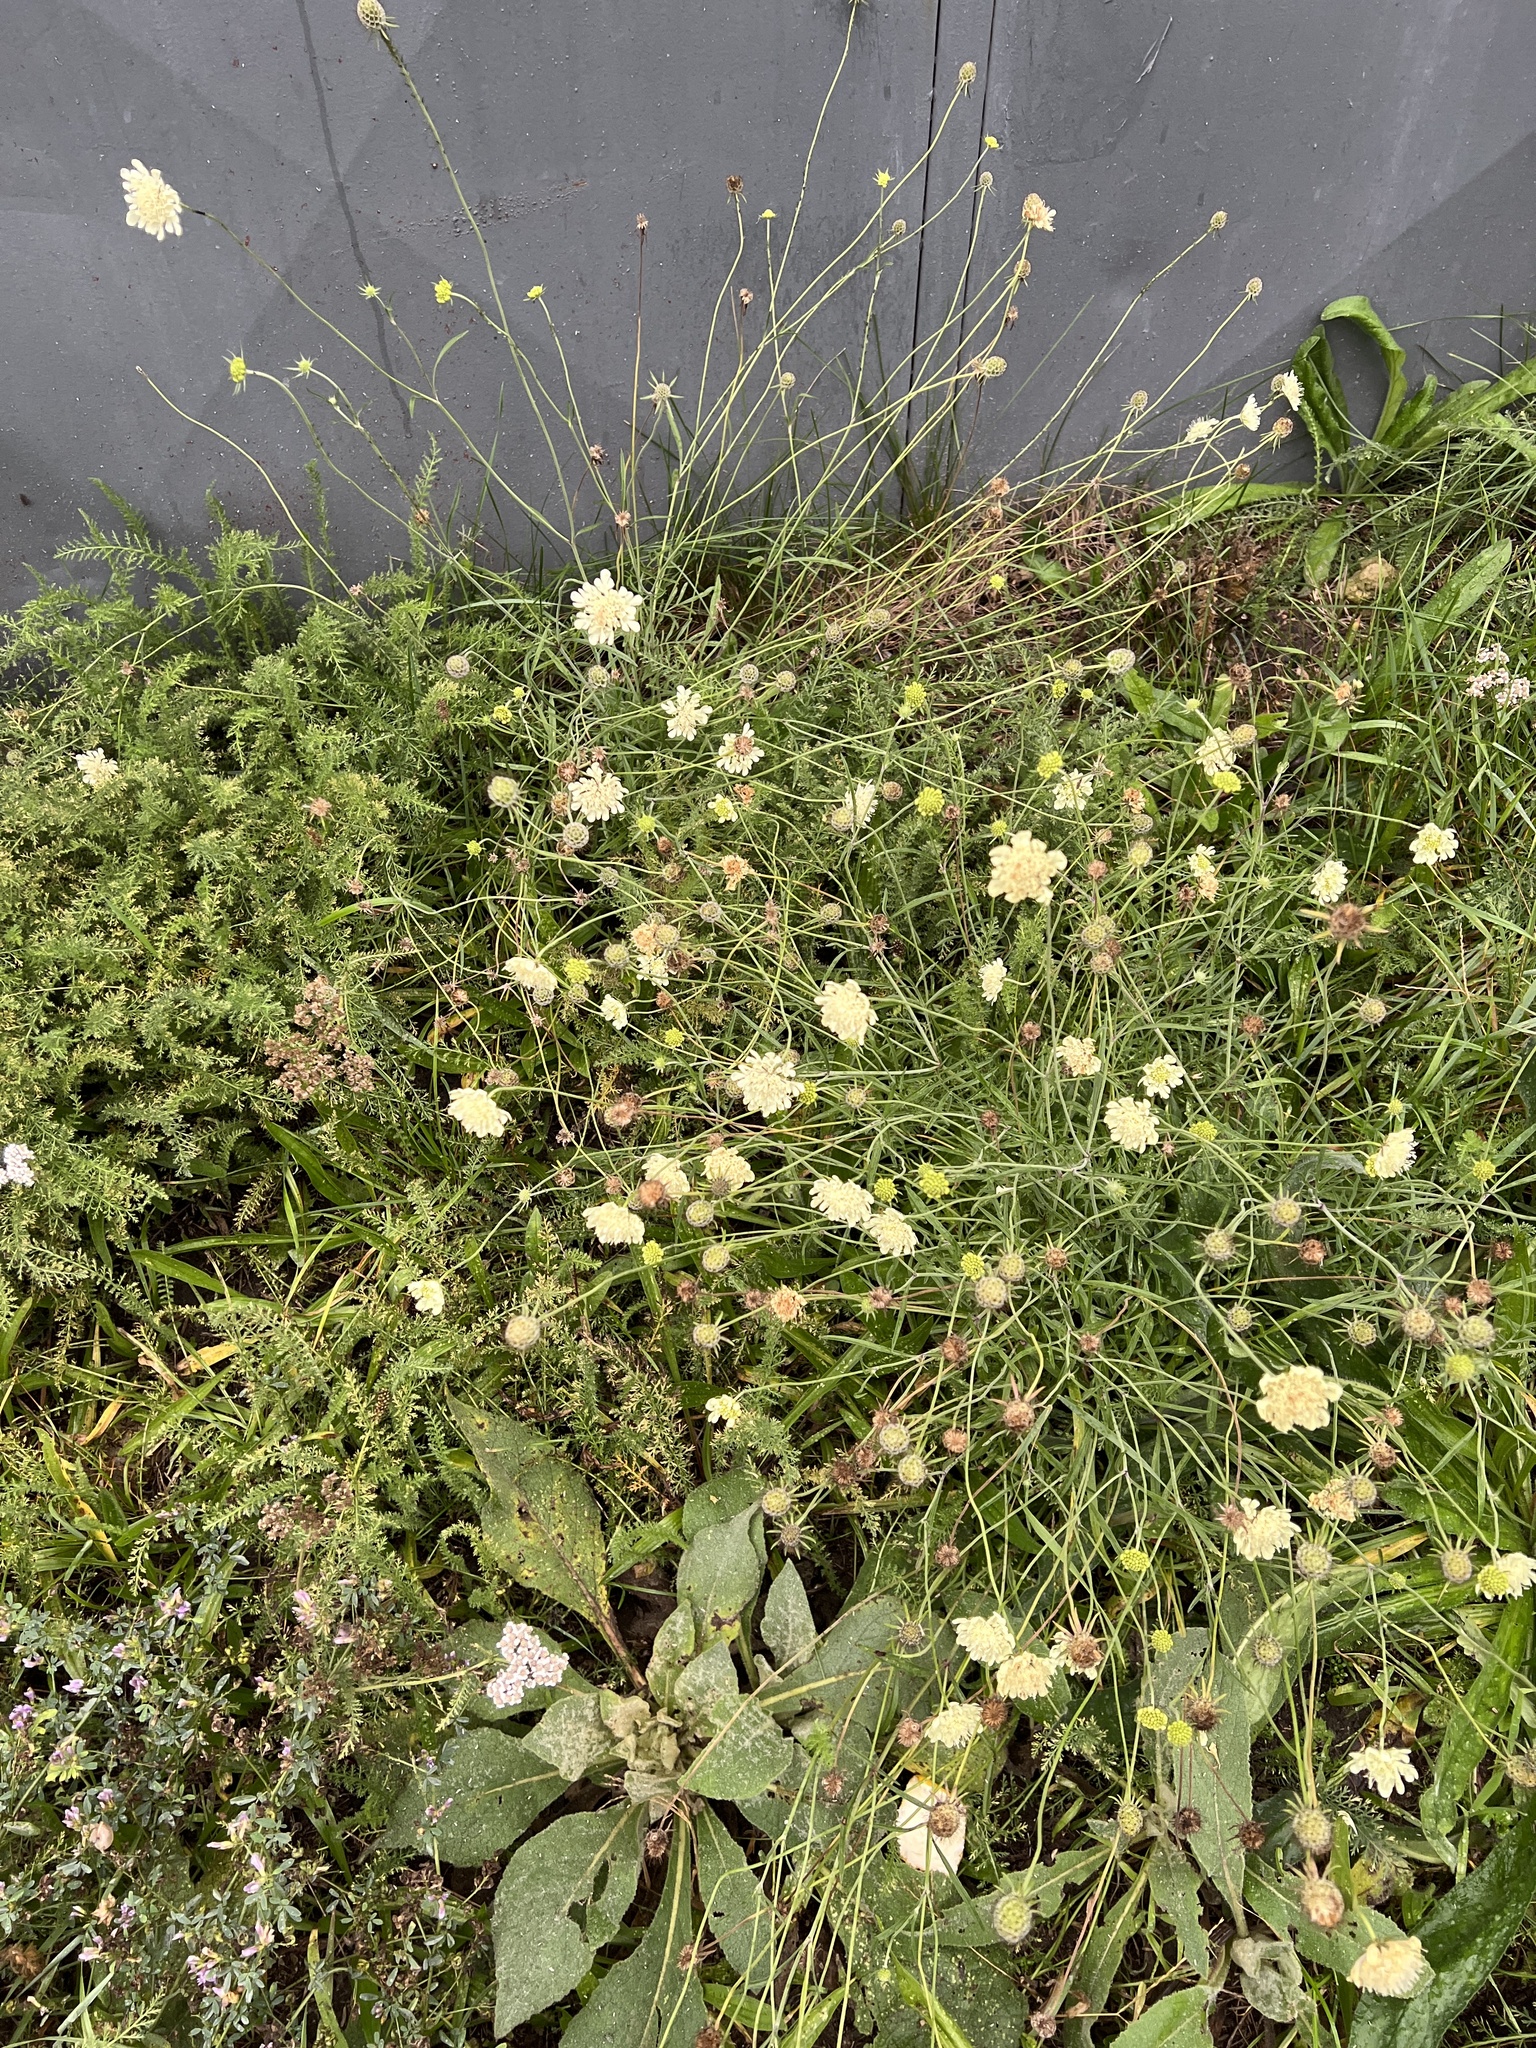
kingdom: Plantae
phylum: Tracheophyta
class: Magnoliopsida
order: Dipsacales
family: Caprifoliaceae
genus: Scabiosa
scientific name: Scabiosa ochroleuca
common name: Cream pincushions
